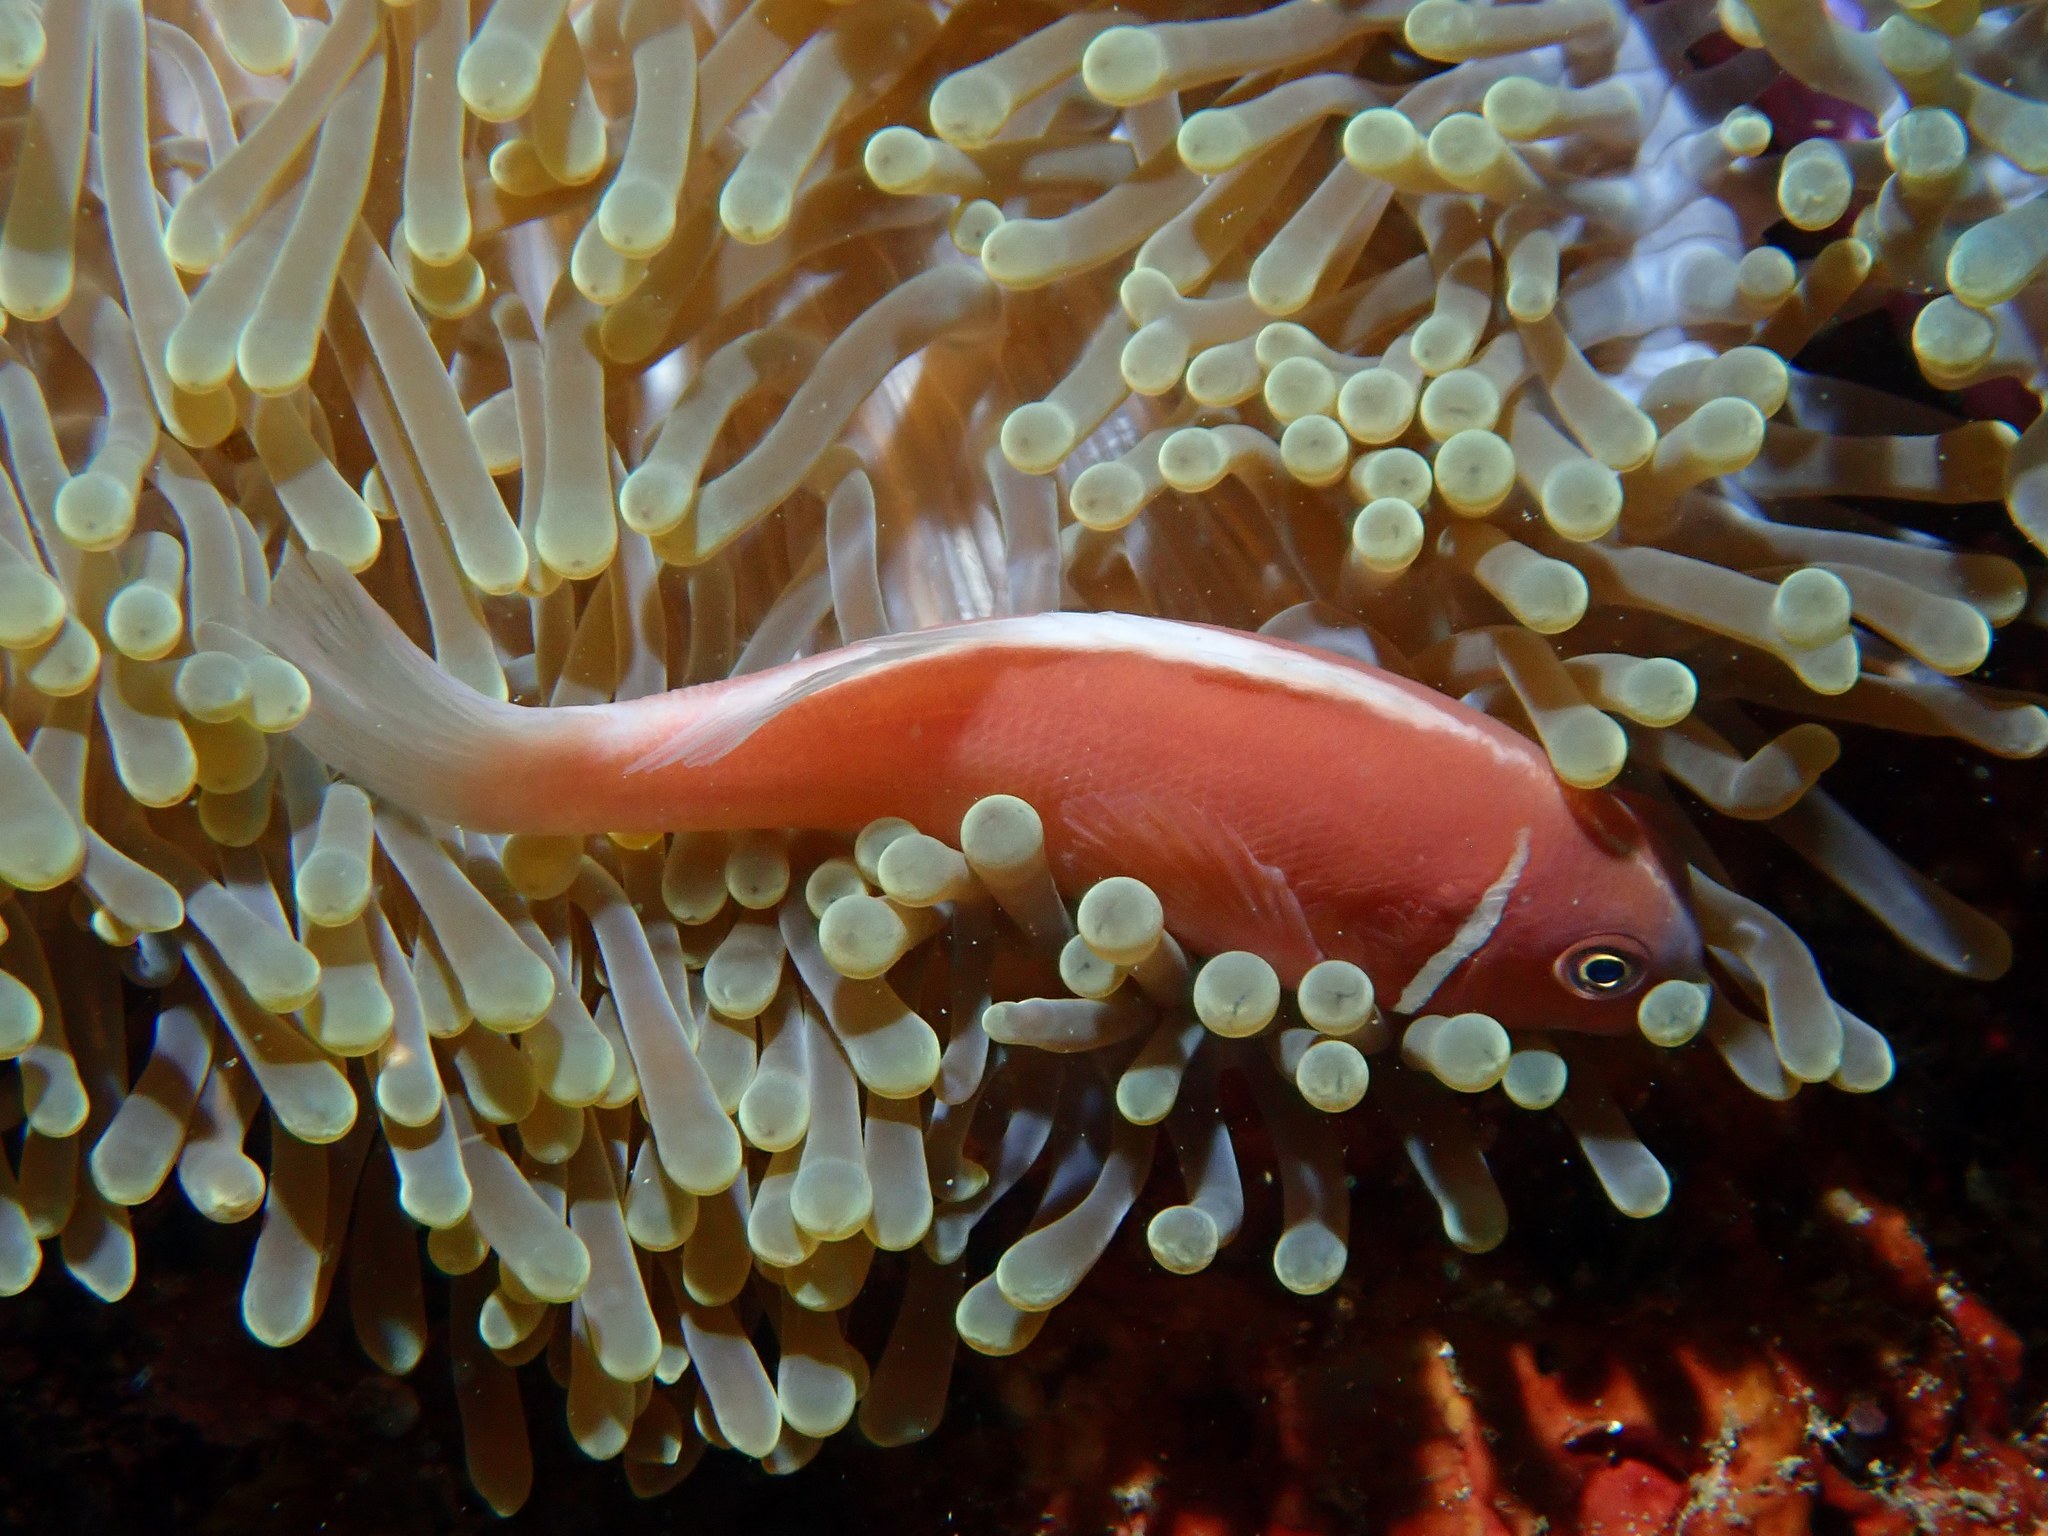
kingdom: Animalia
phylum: Chordata
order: Perciformes
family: Pomacentridae
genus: Amphiprion
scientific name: Amphiprion perideraion
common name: Pink anemonefish
